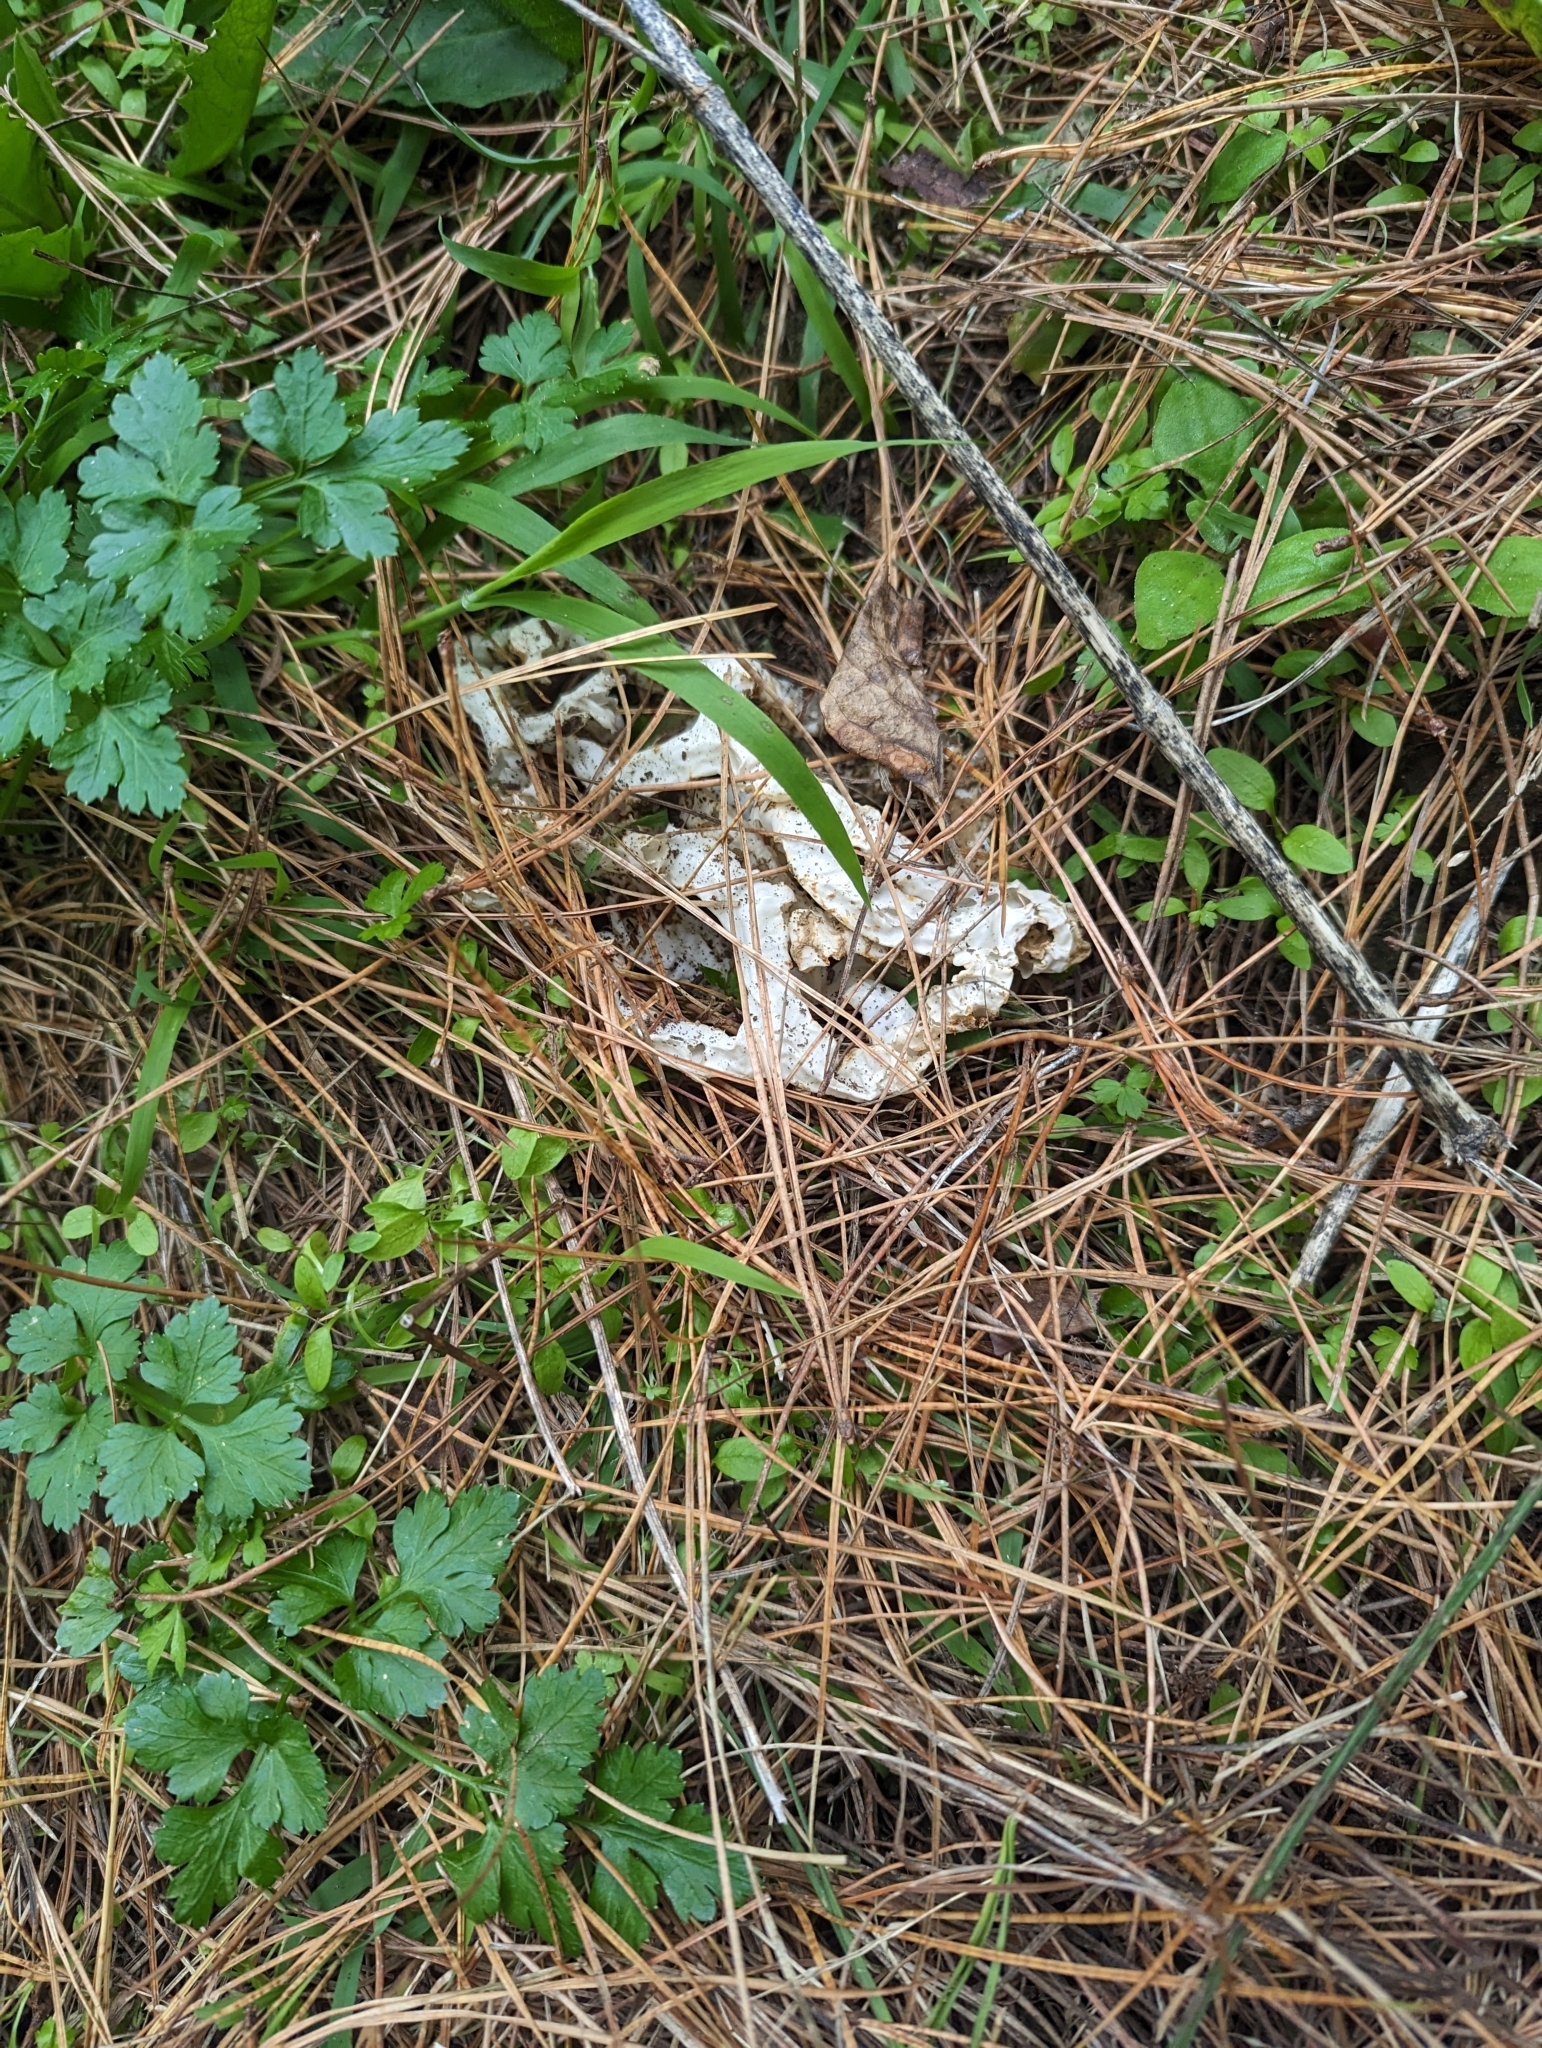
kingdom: Fungi
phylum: Basidiomycota
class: Agaricomycetes
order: Phallales
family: Phallaceae
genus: Ileodictyon
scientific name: Ileodictyon cibarium
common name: Basket fungus
